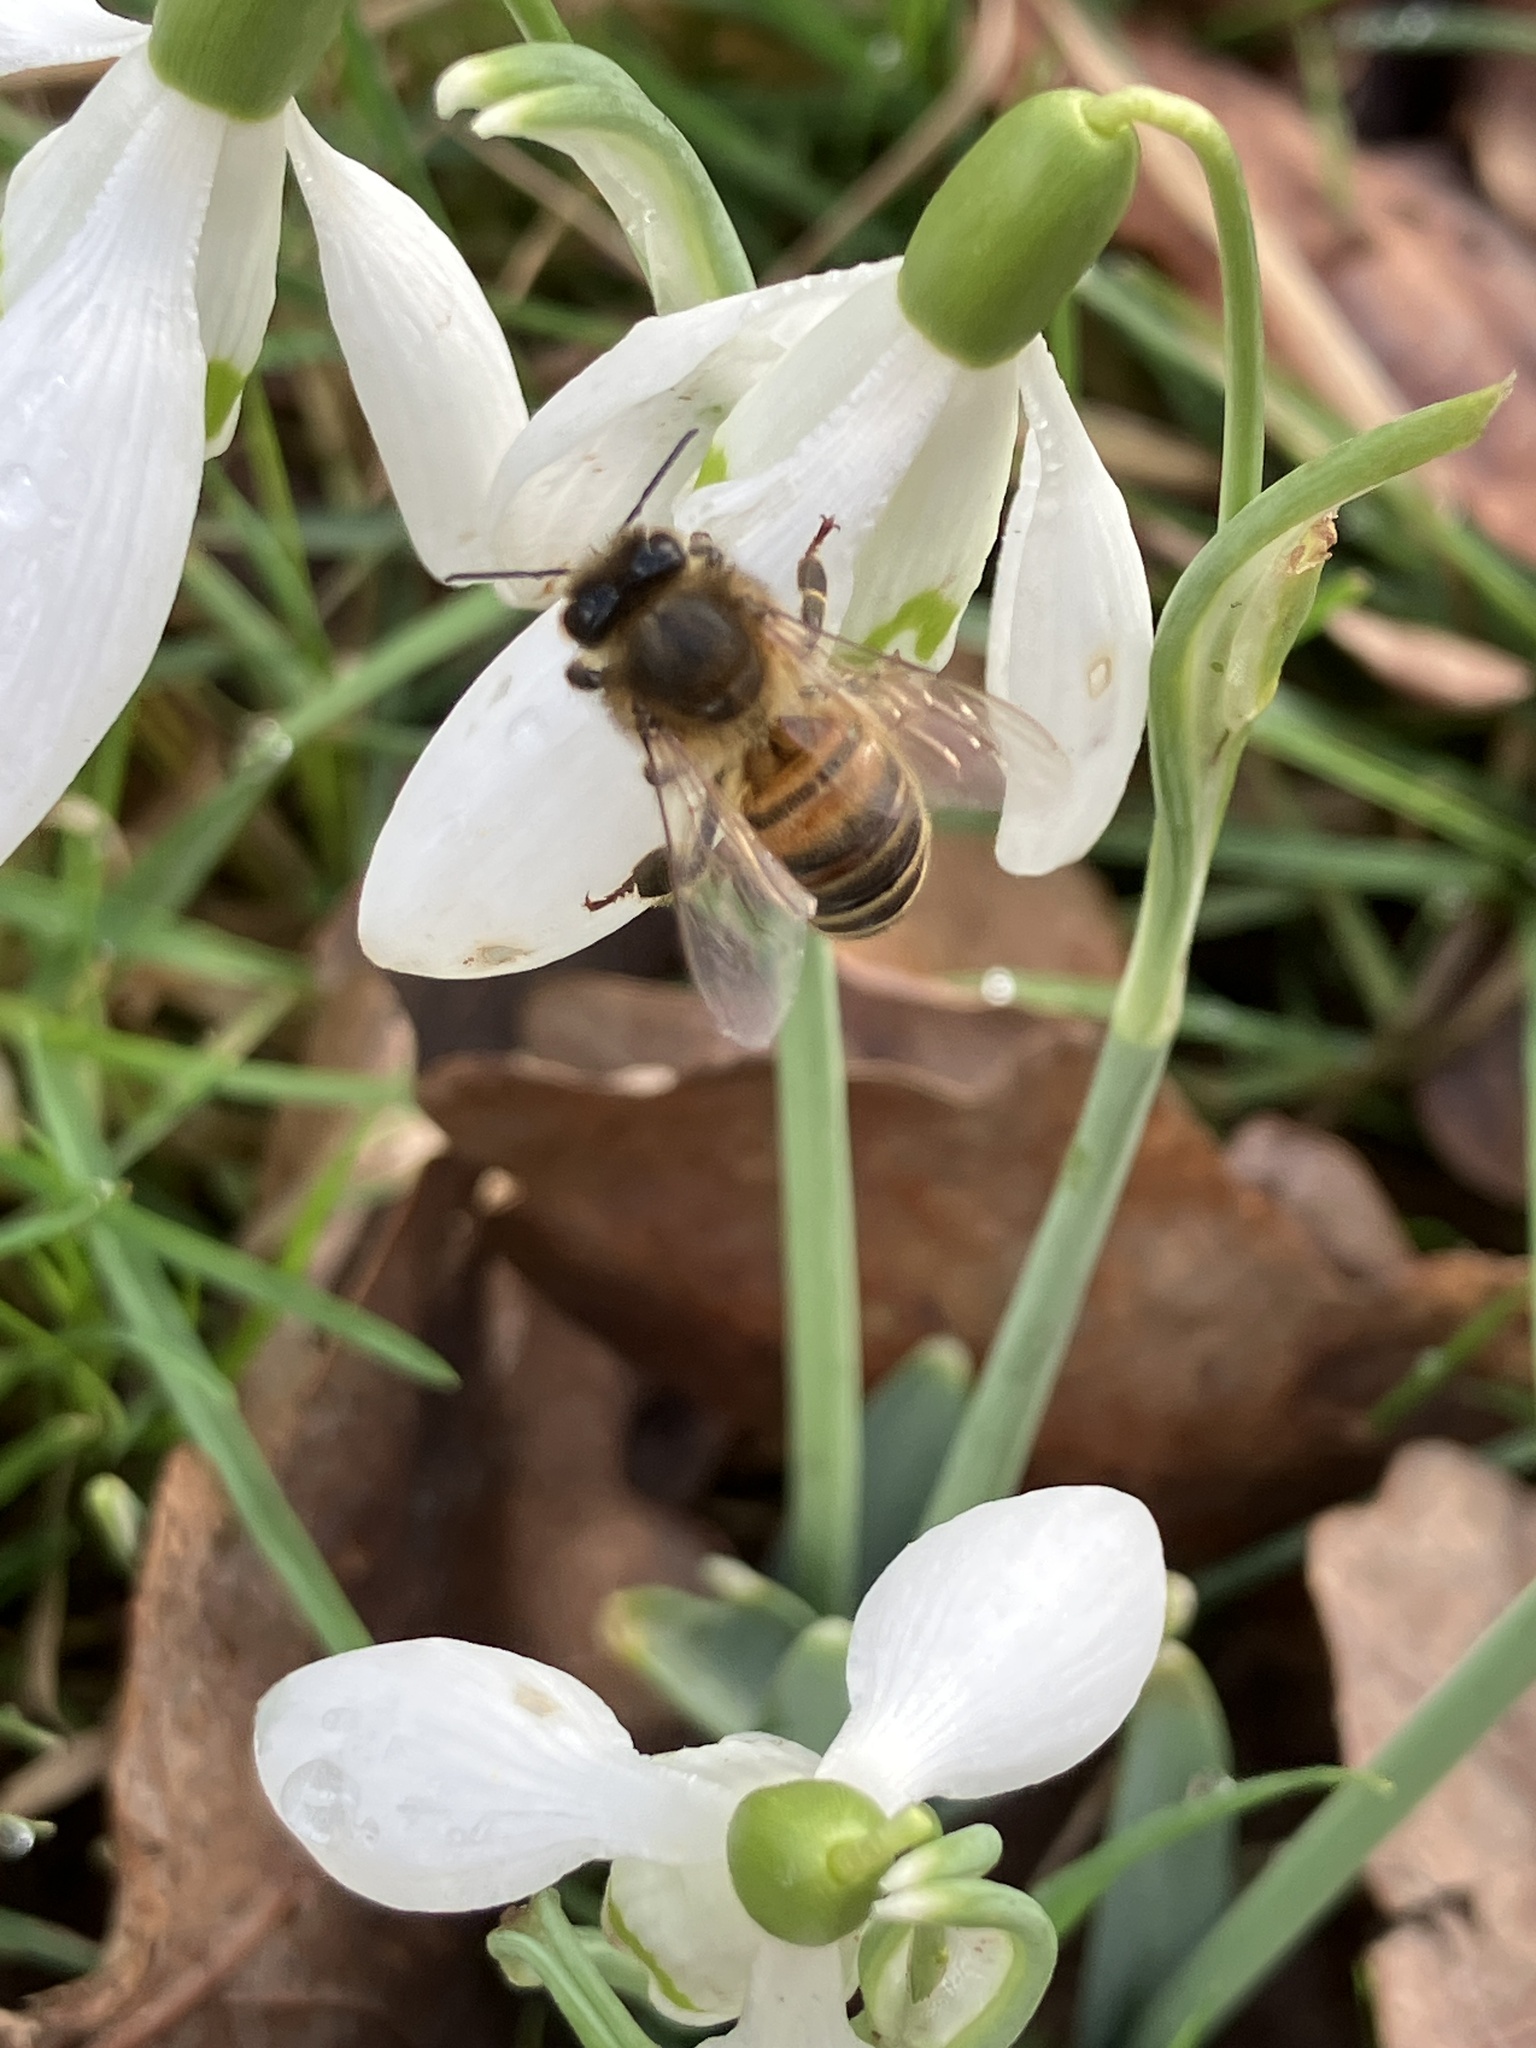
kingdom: Animalia
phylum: Arthropoda
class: Insecta
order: Hymenoptera
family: Apidae
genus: Apis
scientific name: Apis mellifera
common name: Honey bee
